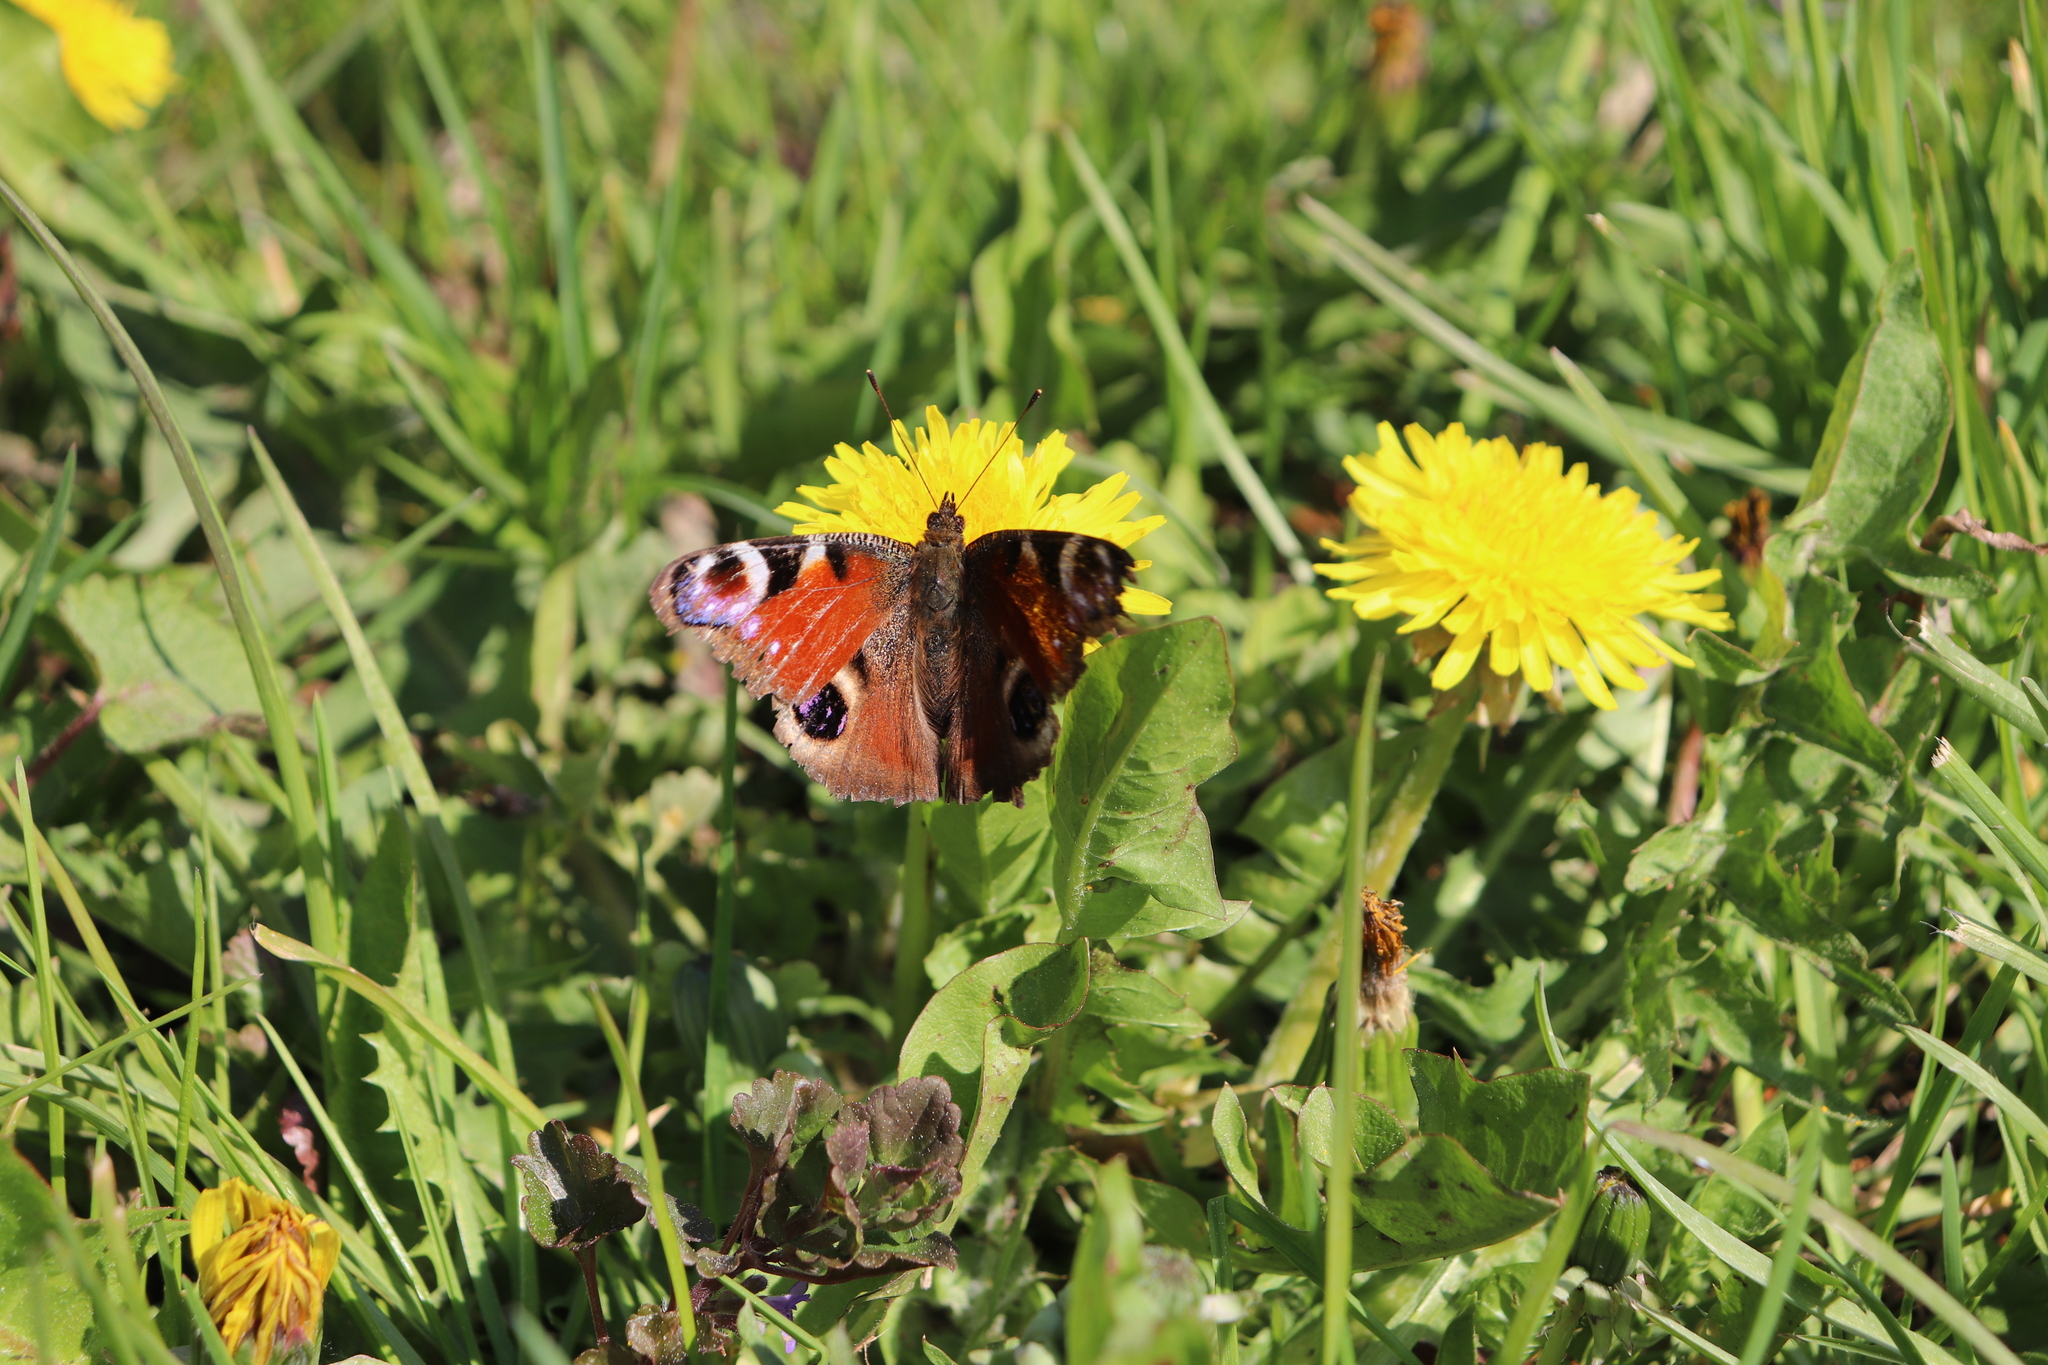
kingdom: Animalia
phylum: Arthropoda
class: Insecta
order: Lepidoptera
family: Nymphalidae
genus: Aglais
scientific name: Aglais io
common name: Peacock
